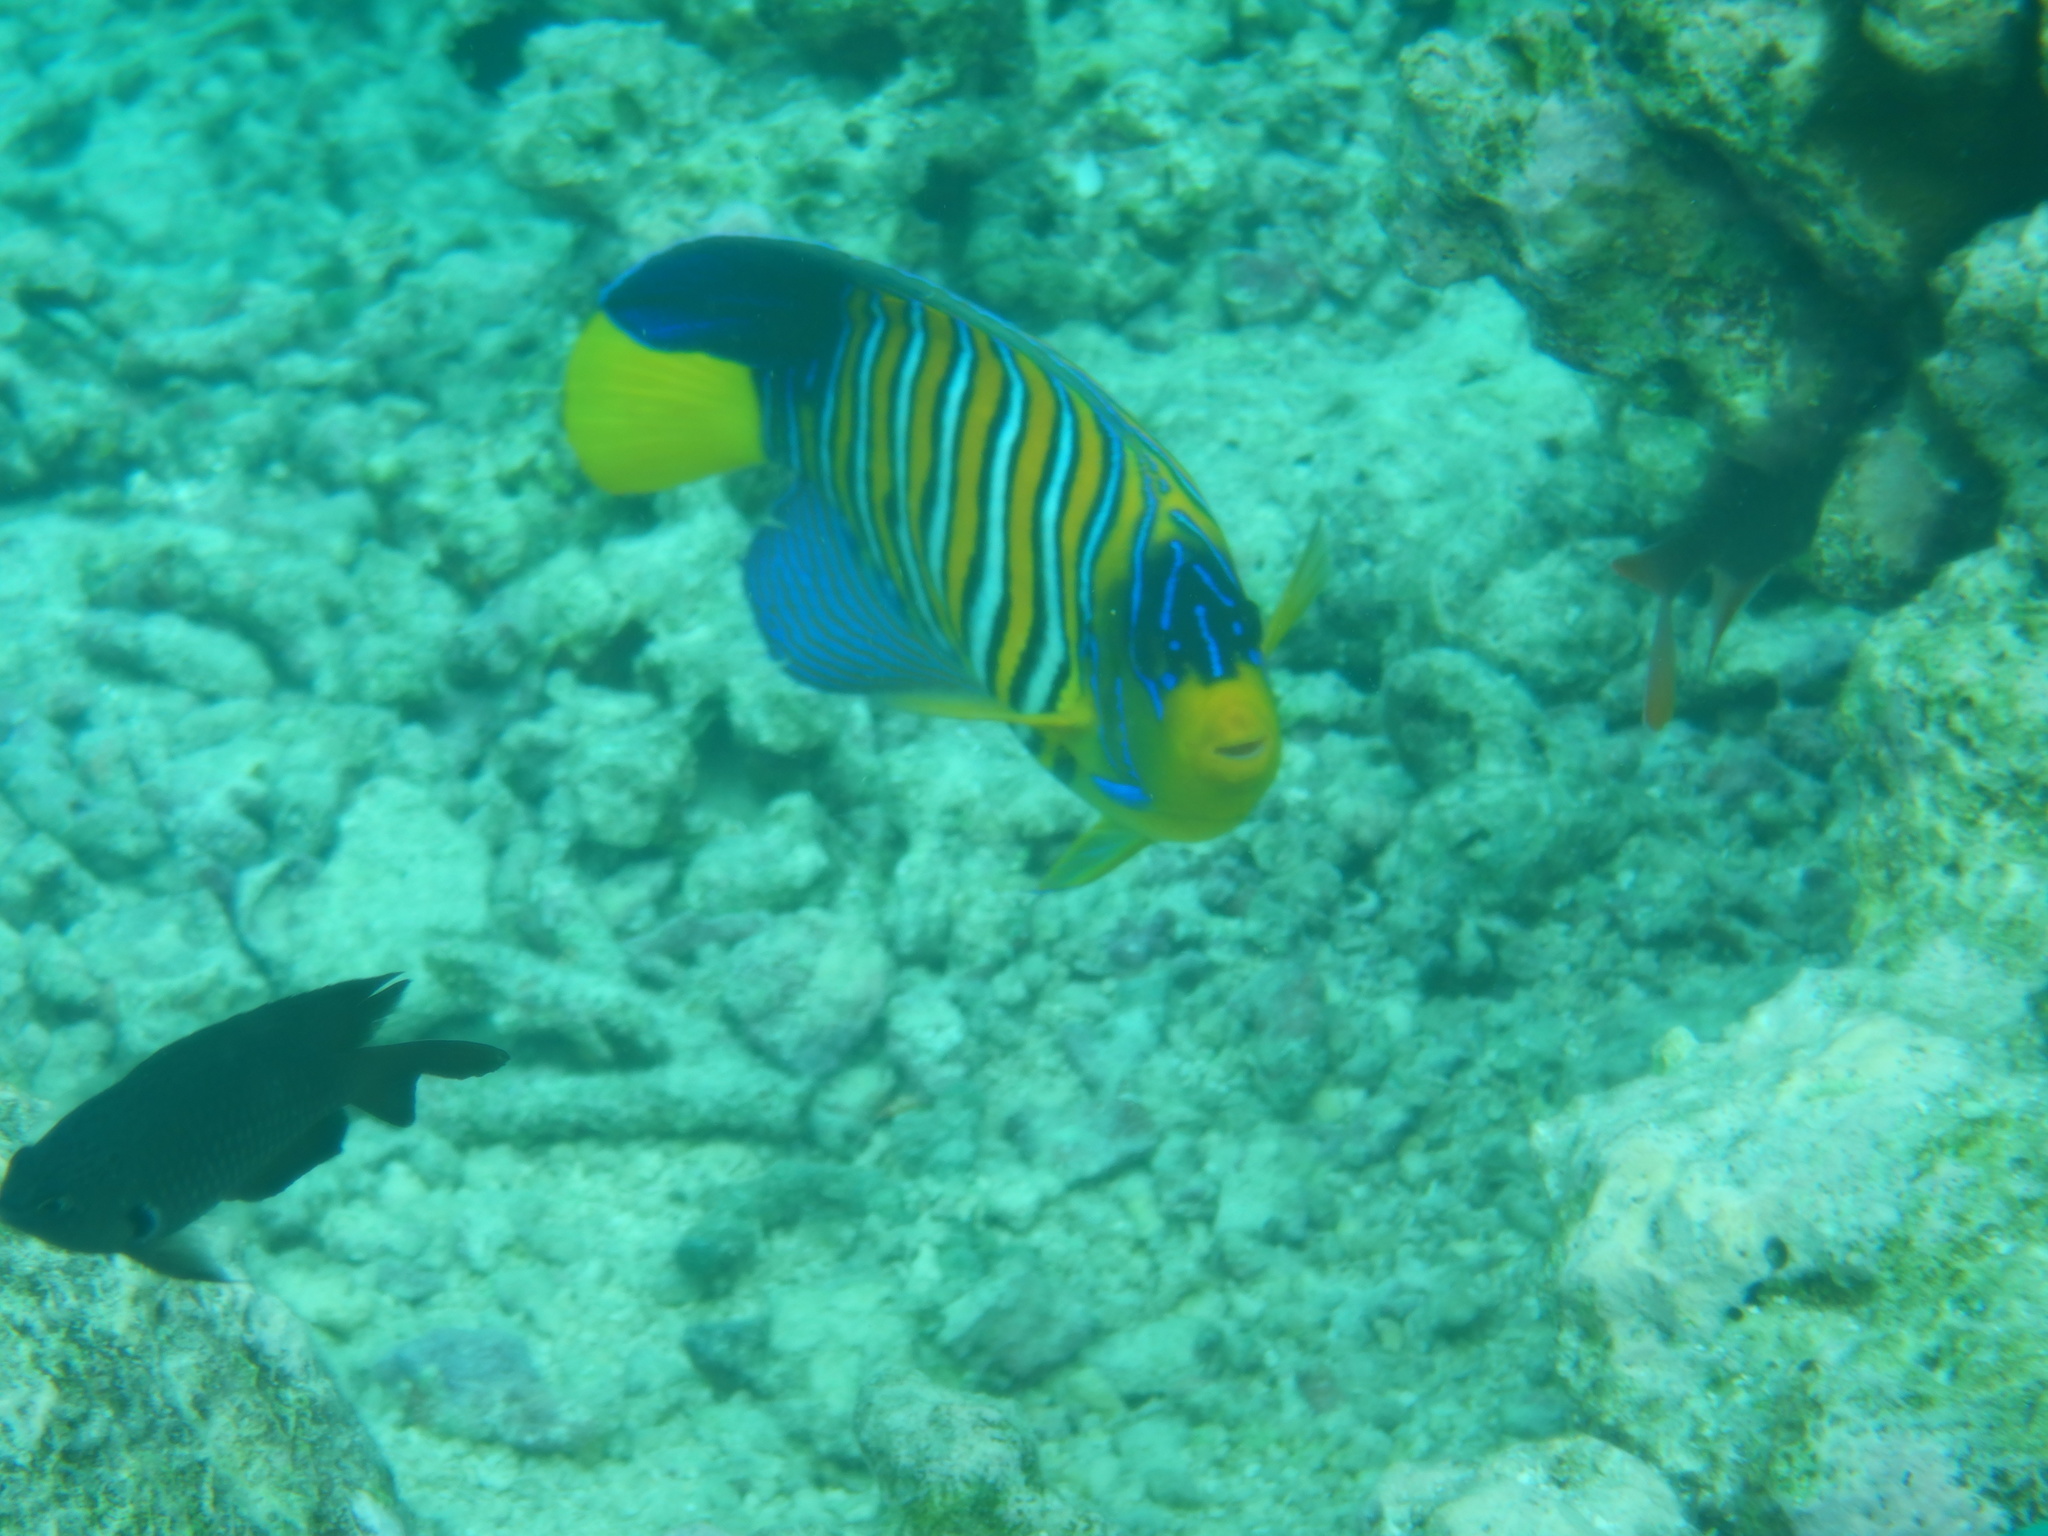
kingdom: Animalia
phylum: Chordata
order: Perciformes
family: Pomacanthidae
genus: Pygoplites
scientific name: Pygoplites diacanthus
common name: Regal angelfish
